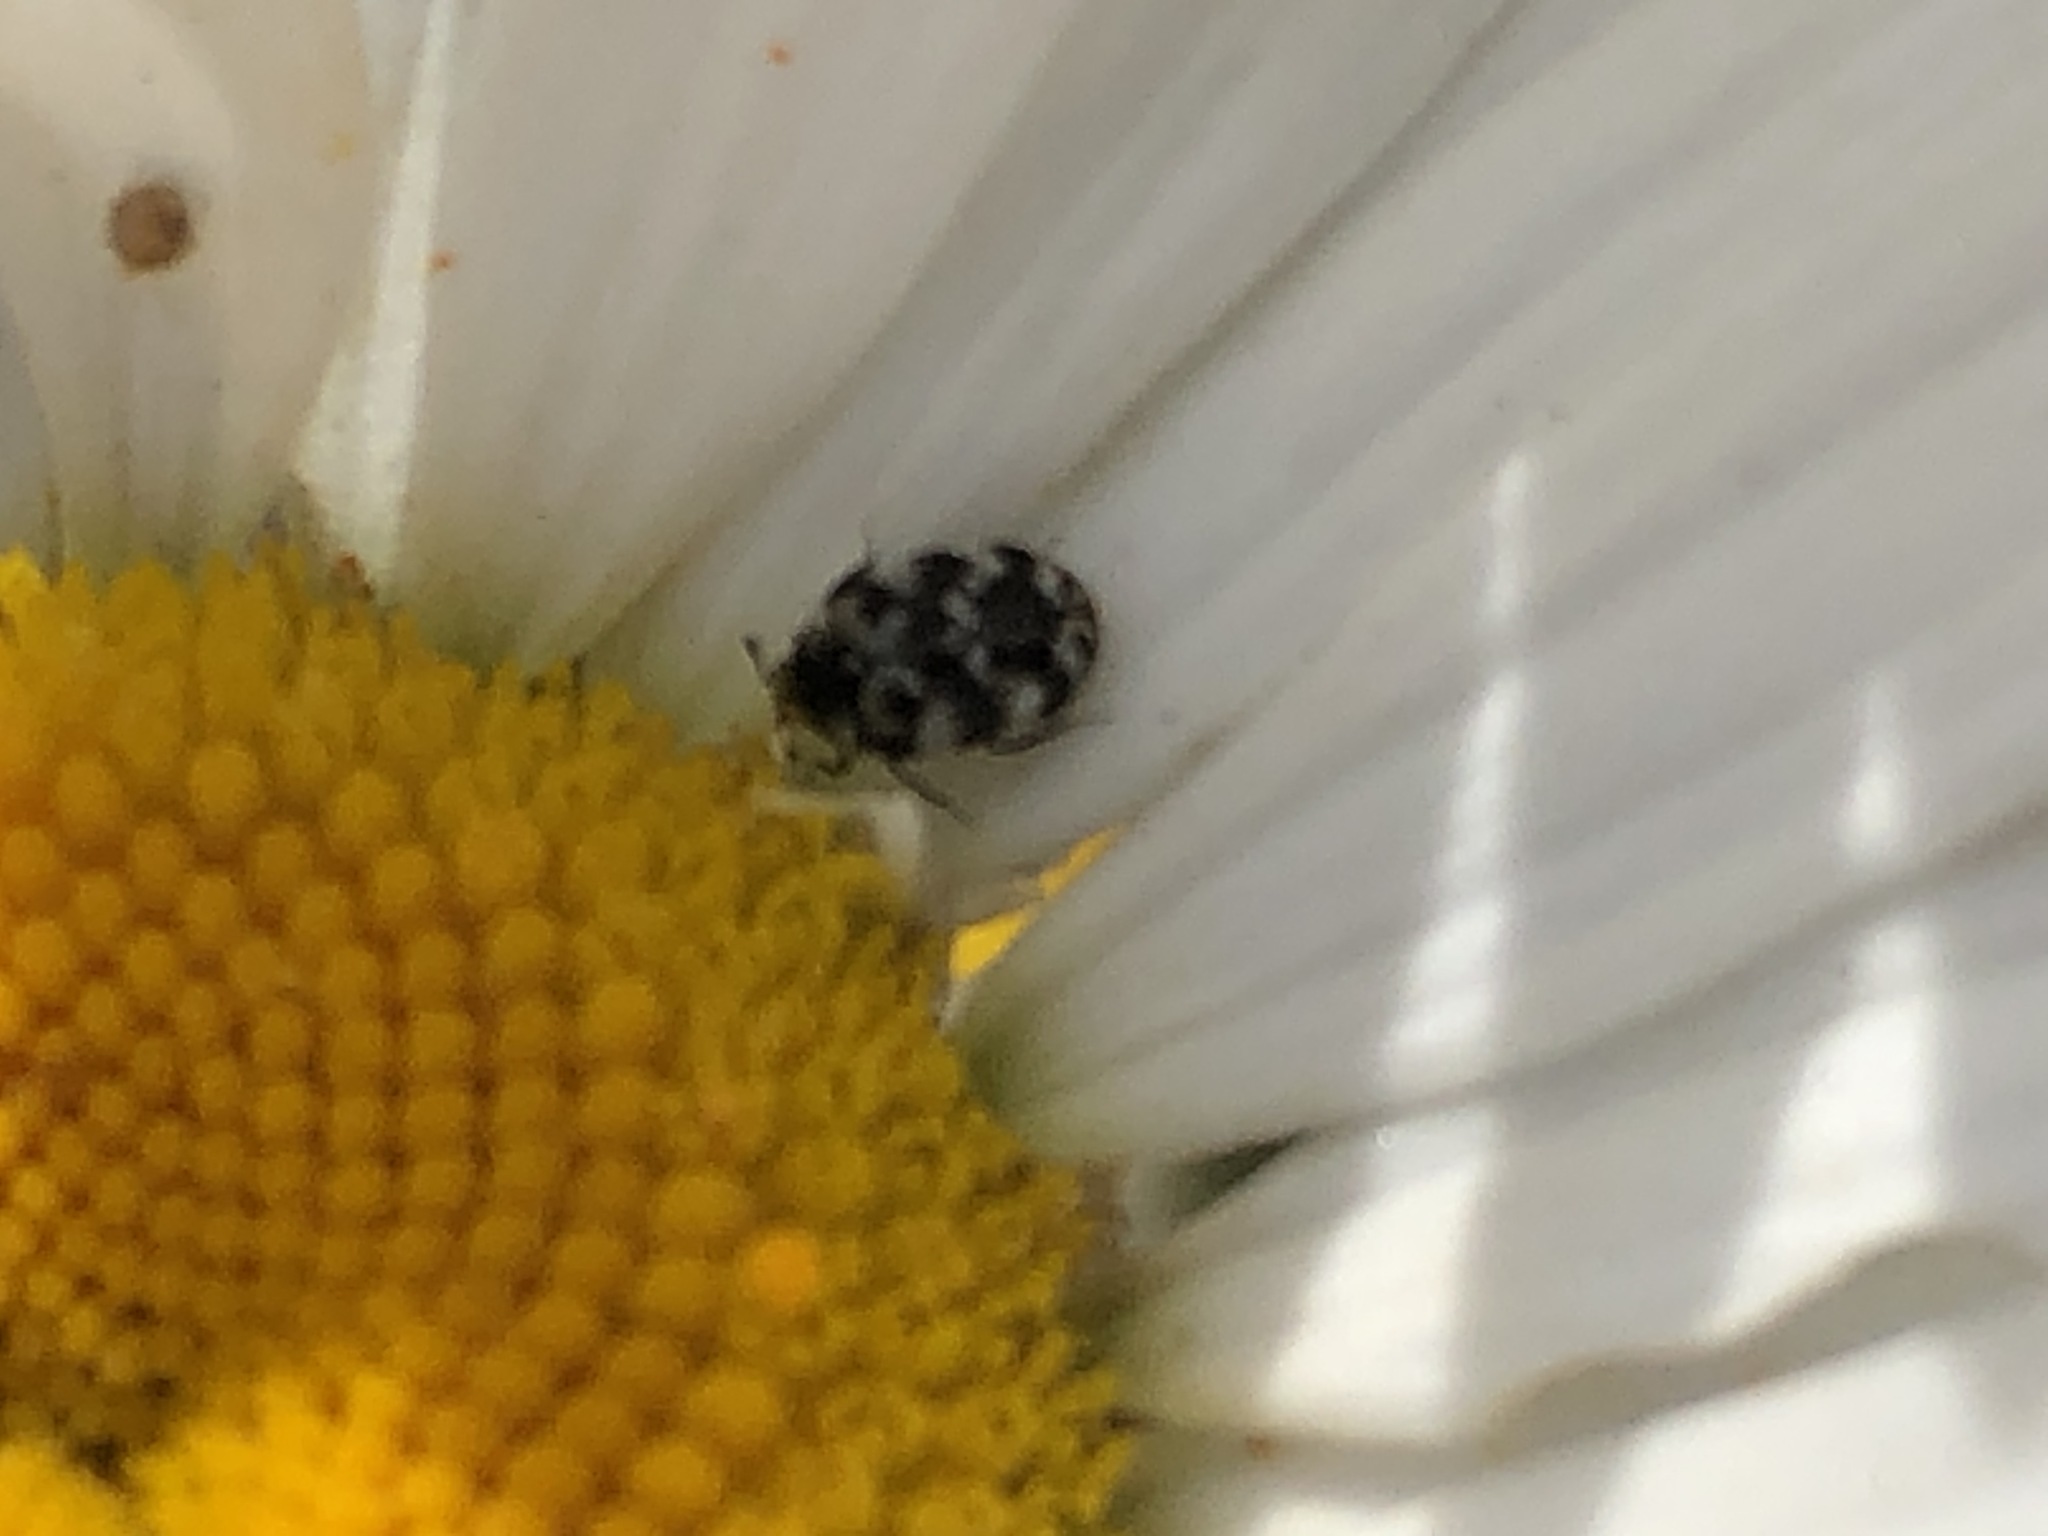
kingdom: Animalia
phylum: Arthropoda
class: Insecta
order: Coleoptera
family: Dermestidae
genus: Anthrenus
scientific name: Anthrenus verbasci
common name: Varied carpet beetle
